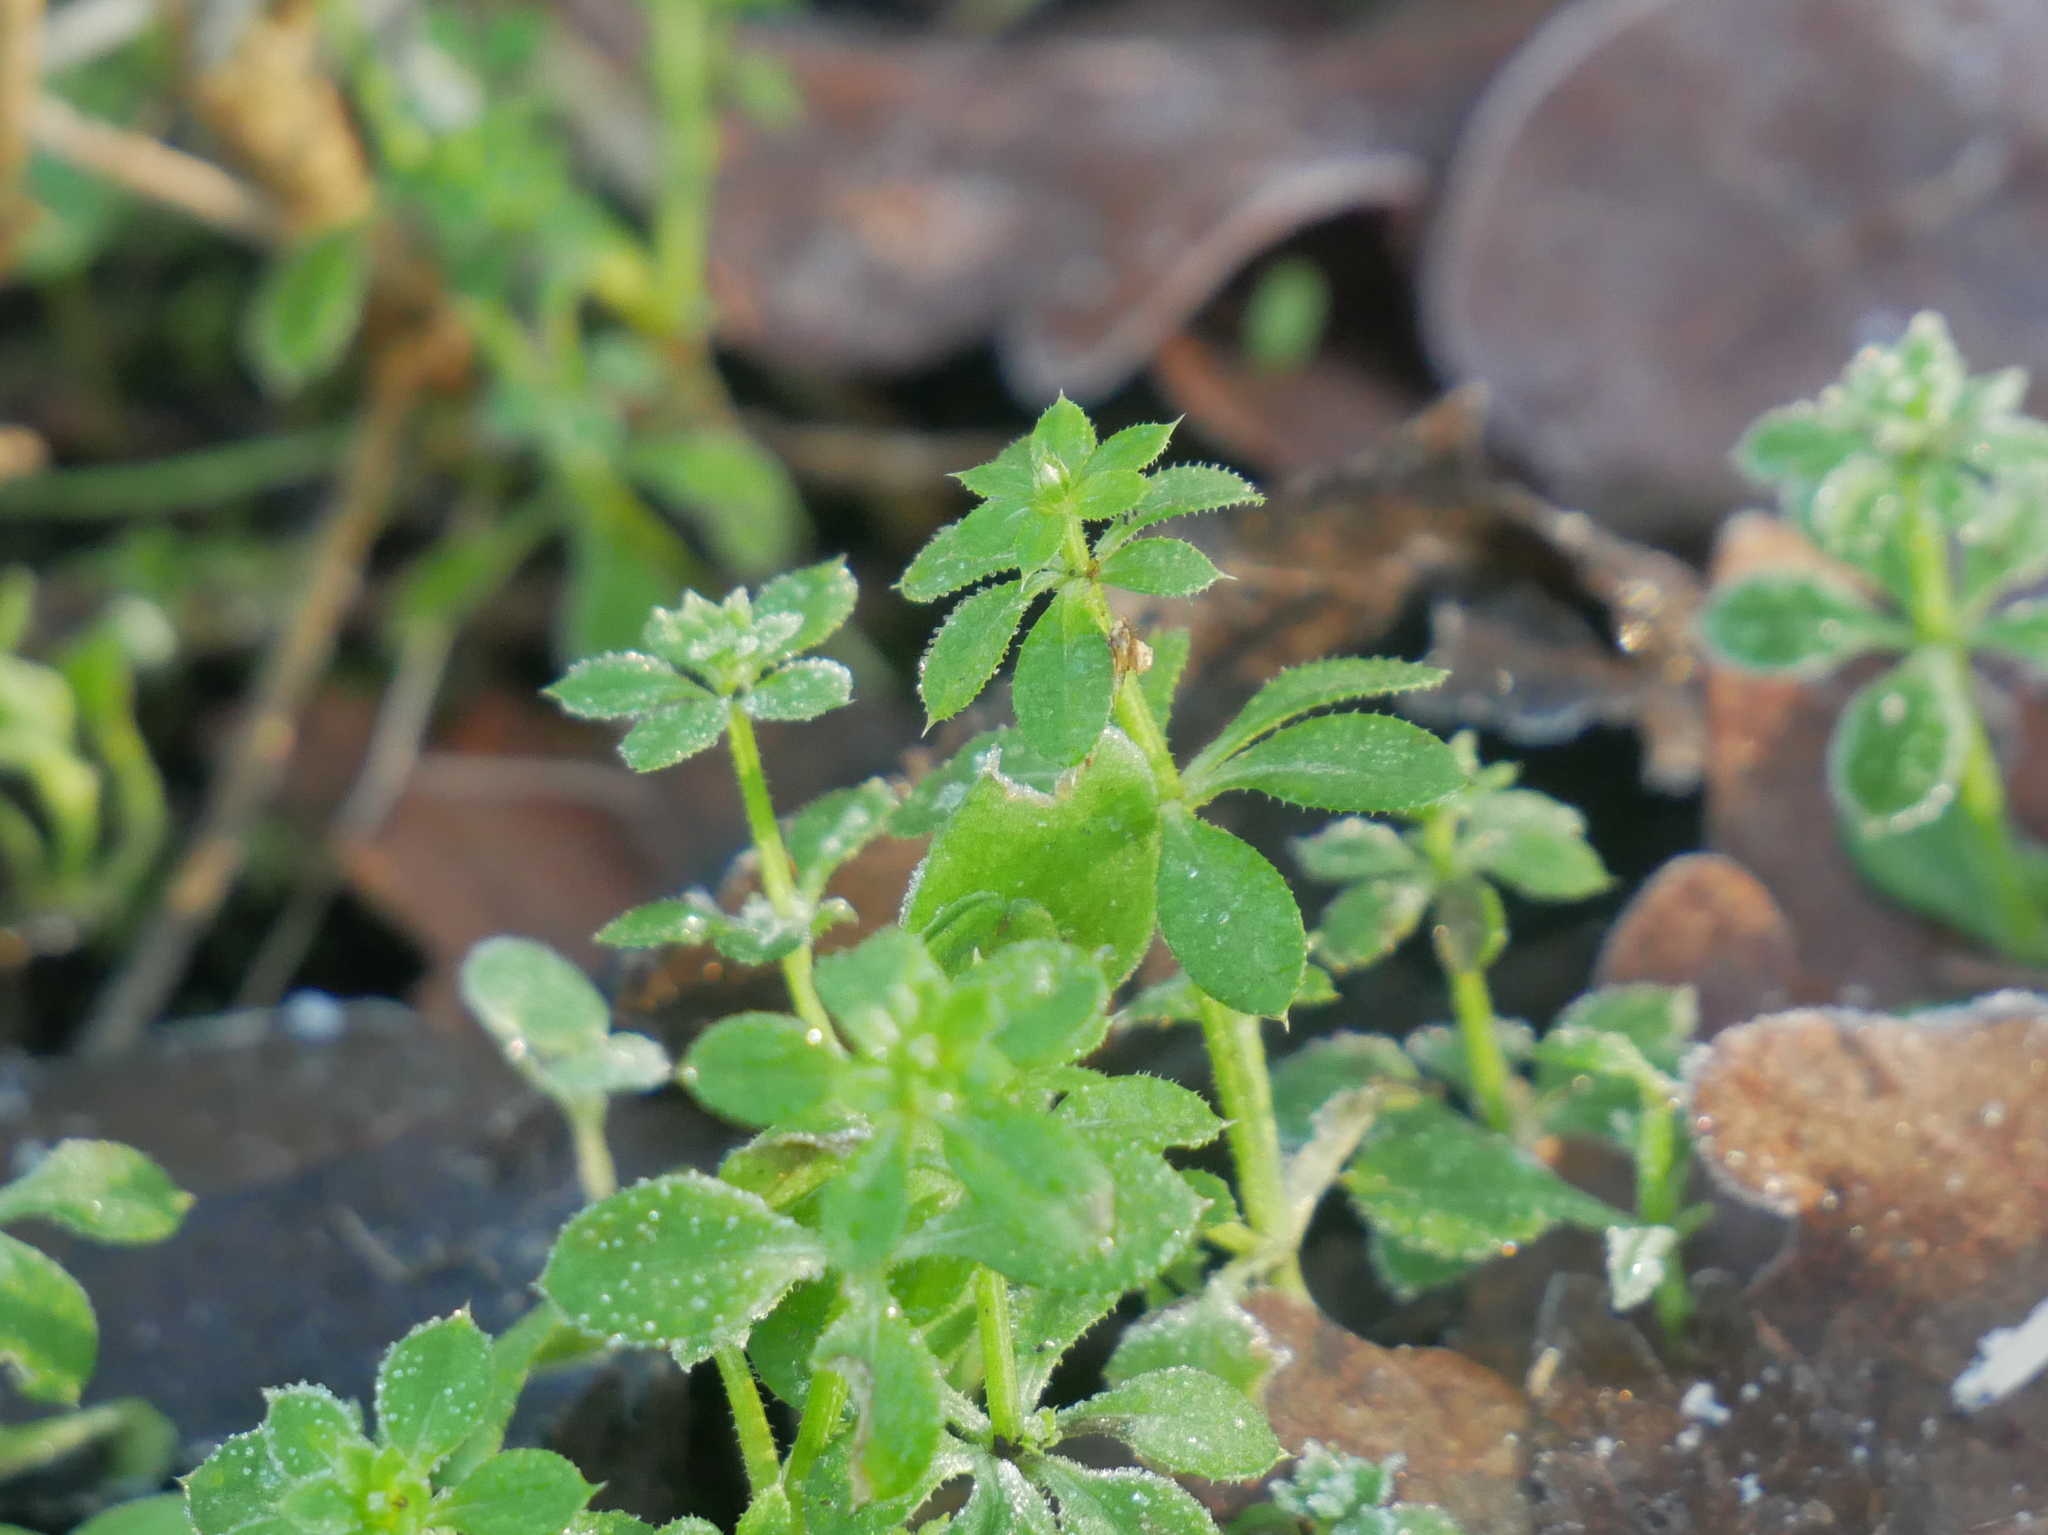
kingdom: Plantae
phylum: Tracheophyta
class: Magnoliopsida
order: Gentianales
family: Rubiaceae
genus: Galium
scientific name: Galium aparine
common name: Cleavers
